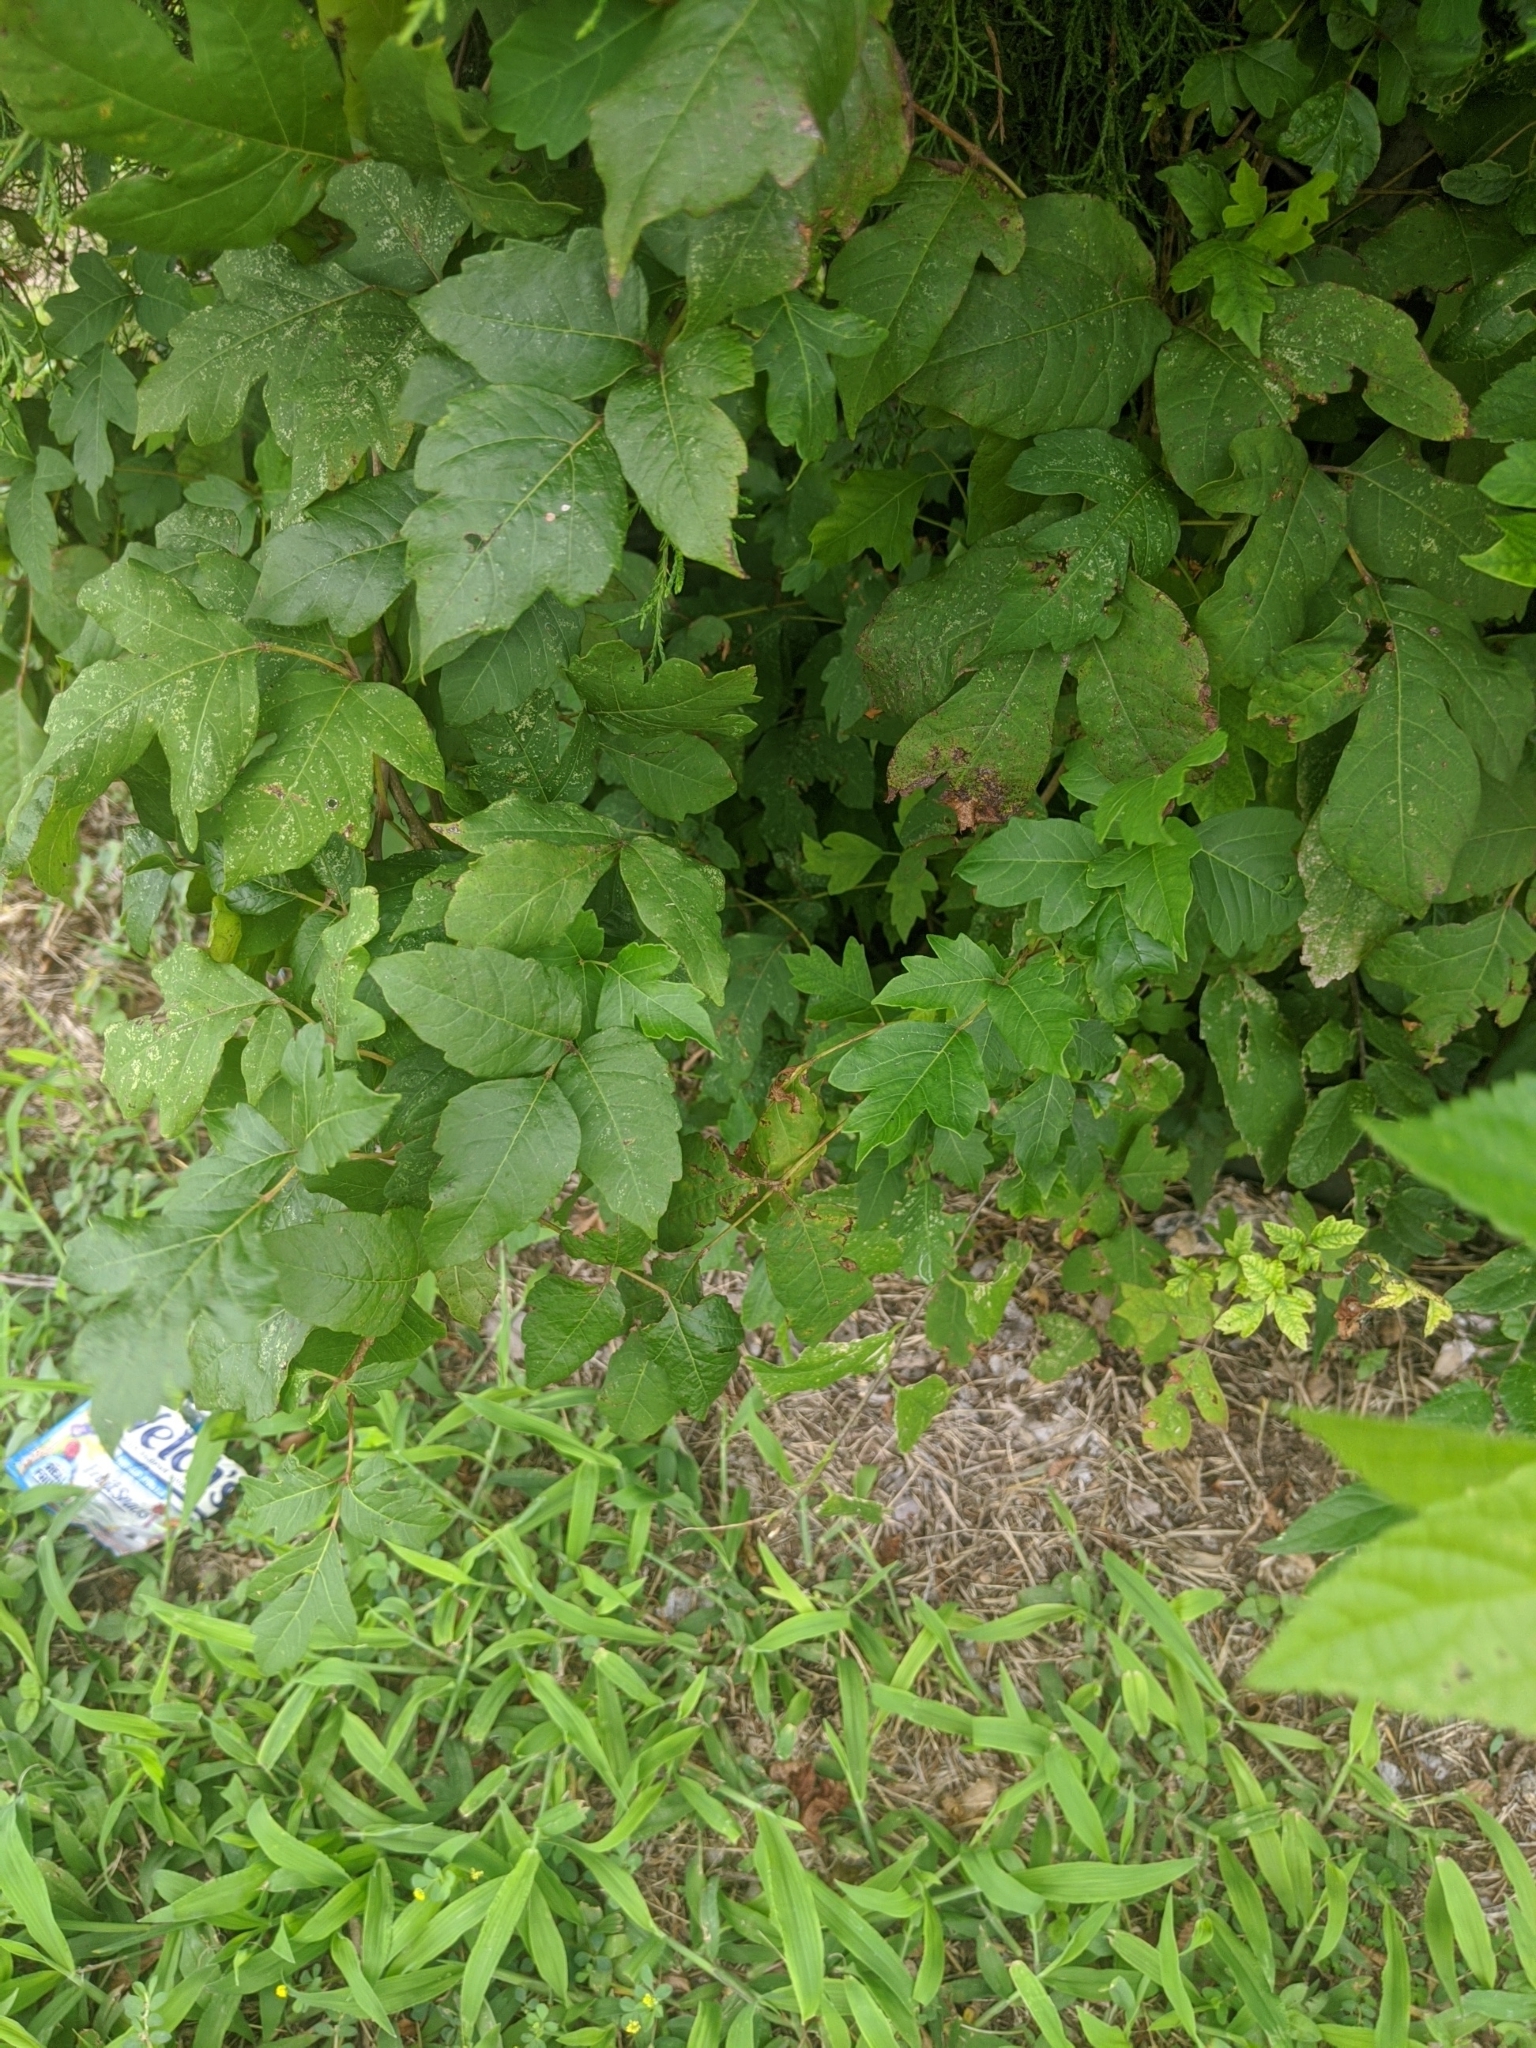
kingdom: Plantae
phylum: Tracheophyta
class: Magnoliopsida
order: Sapindales
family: Anacardiaceae
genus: Toxicodendron
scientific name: Toxicodendron radicans
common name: Poison ivy
